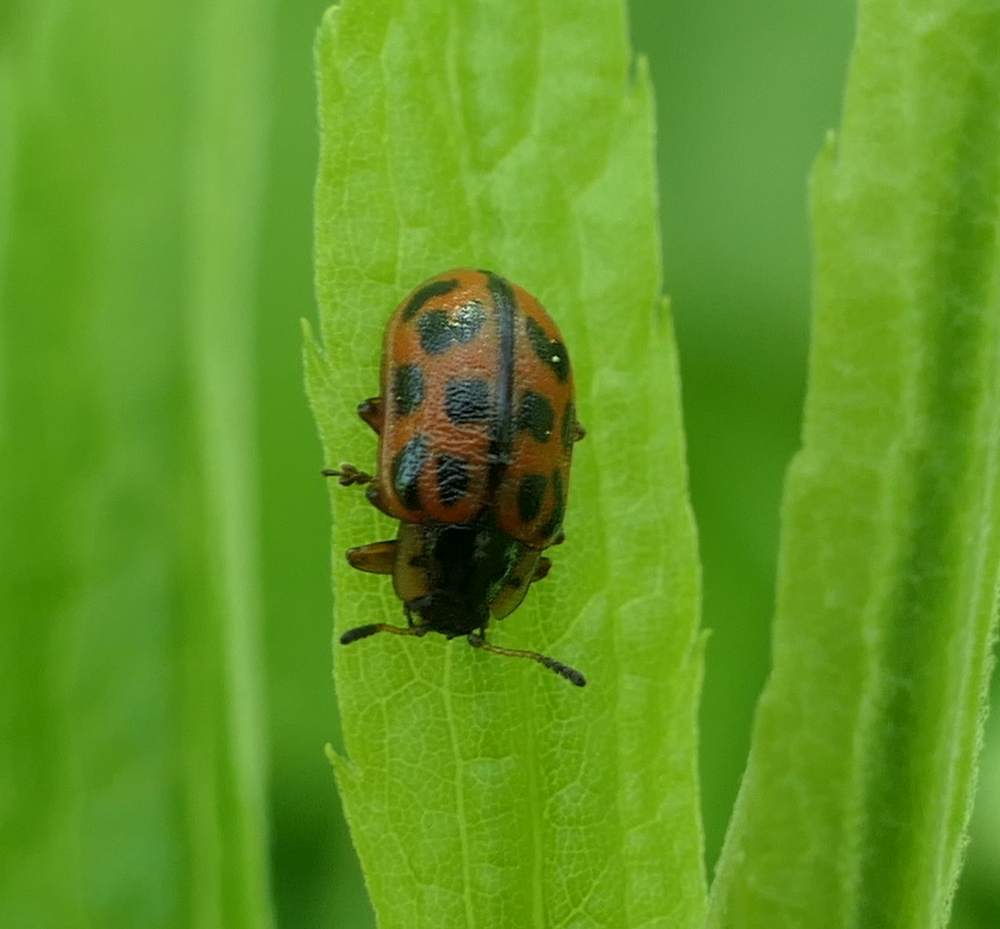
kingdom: Animalia
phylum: Arthropoda
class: Insecta
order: Coleoptera
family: Chrysomelidae
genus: Chrysomela
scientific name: Chrysomela mainensis
